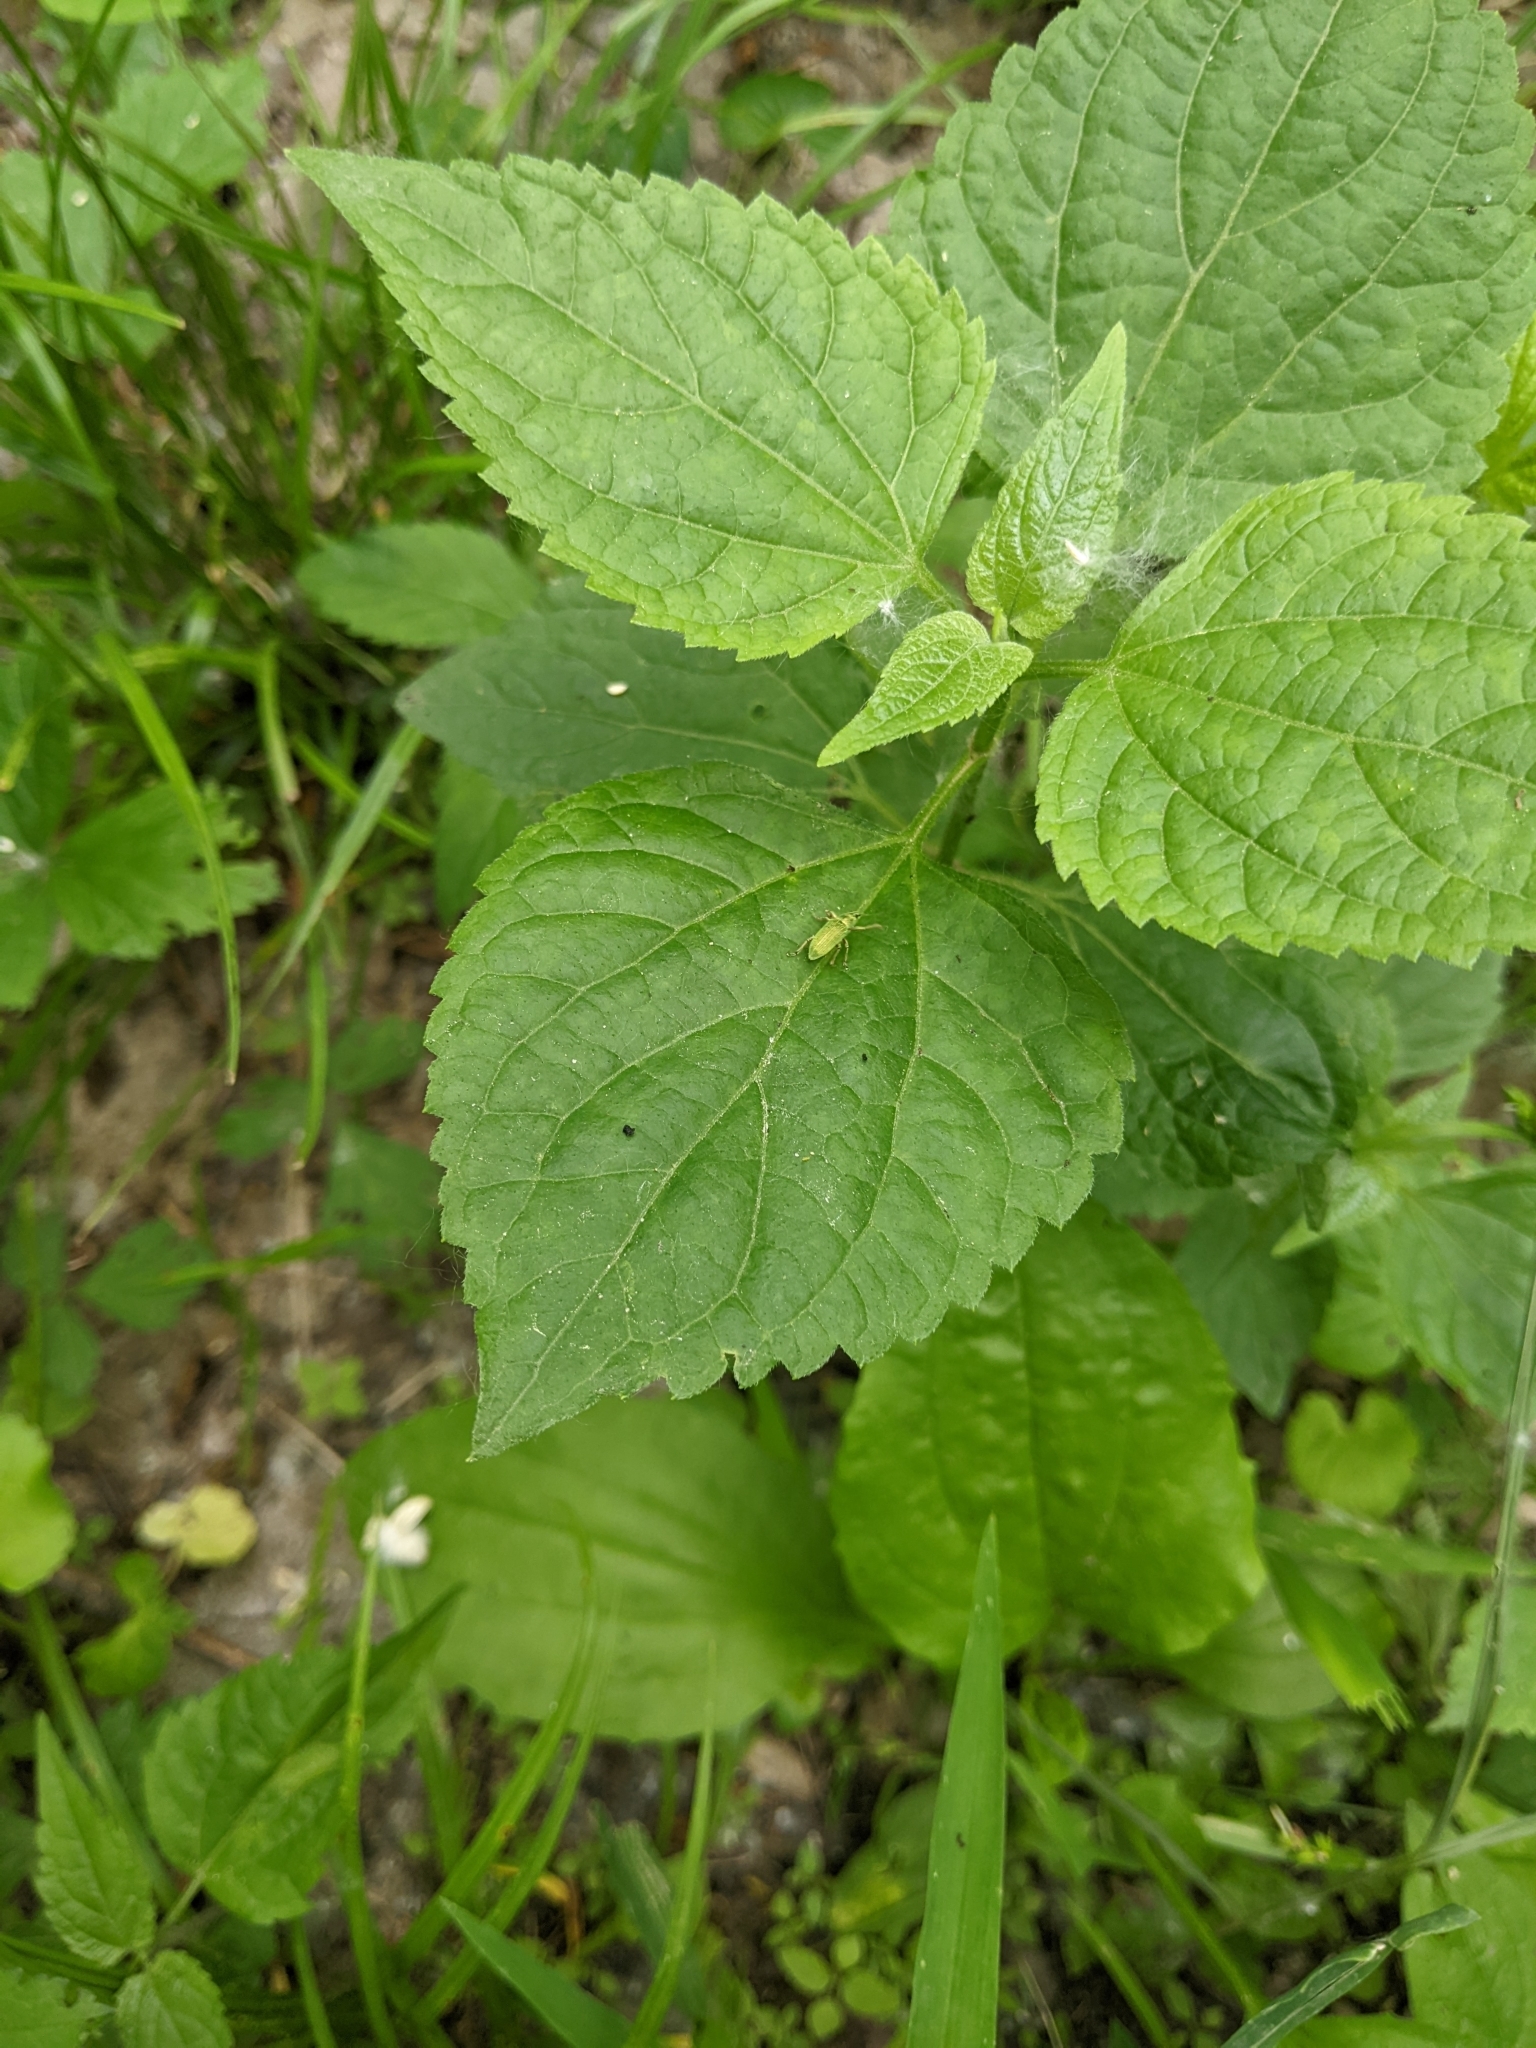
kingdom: Animalia
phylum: Arthropoda
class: Insecta
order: Coleoptera
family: Curculionidae
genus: Polydrusus
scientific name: Polydrusus formosus
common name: Weevil
